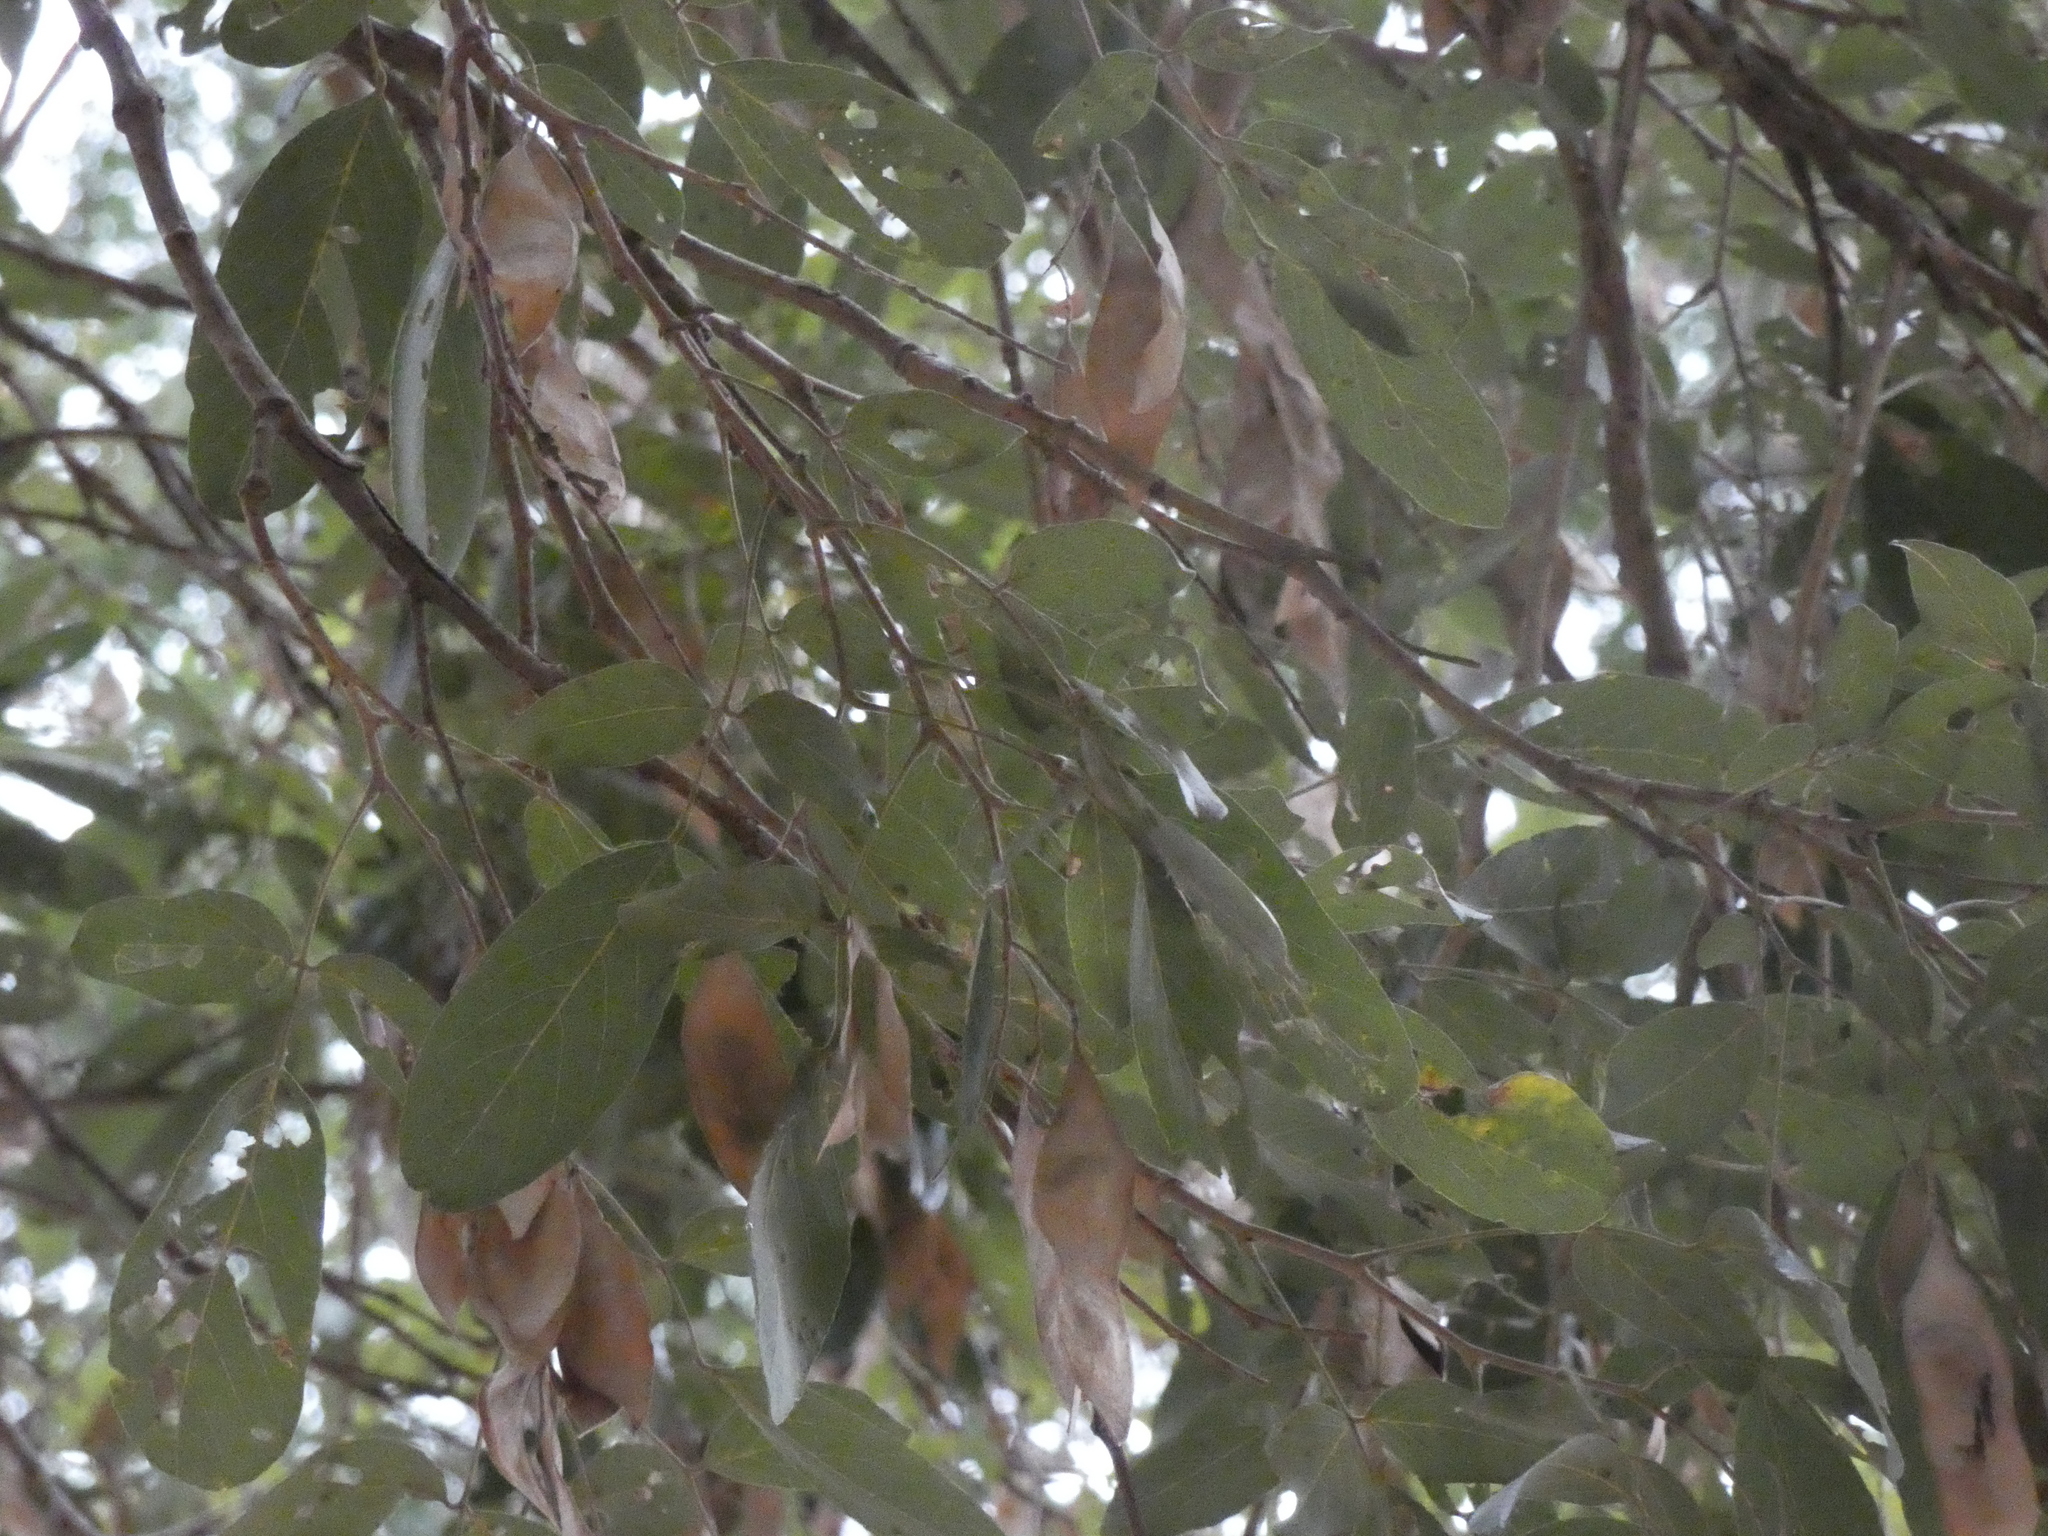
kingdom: Plantae
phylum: Tracheophyta
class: Magnoliopsida
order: Fabales
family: Fabaceae
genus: Philenoptera
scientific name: Philenoptera violacea
